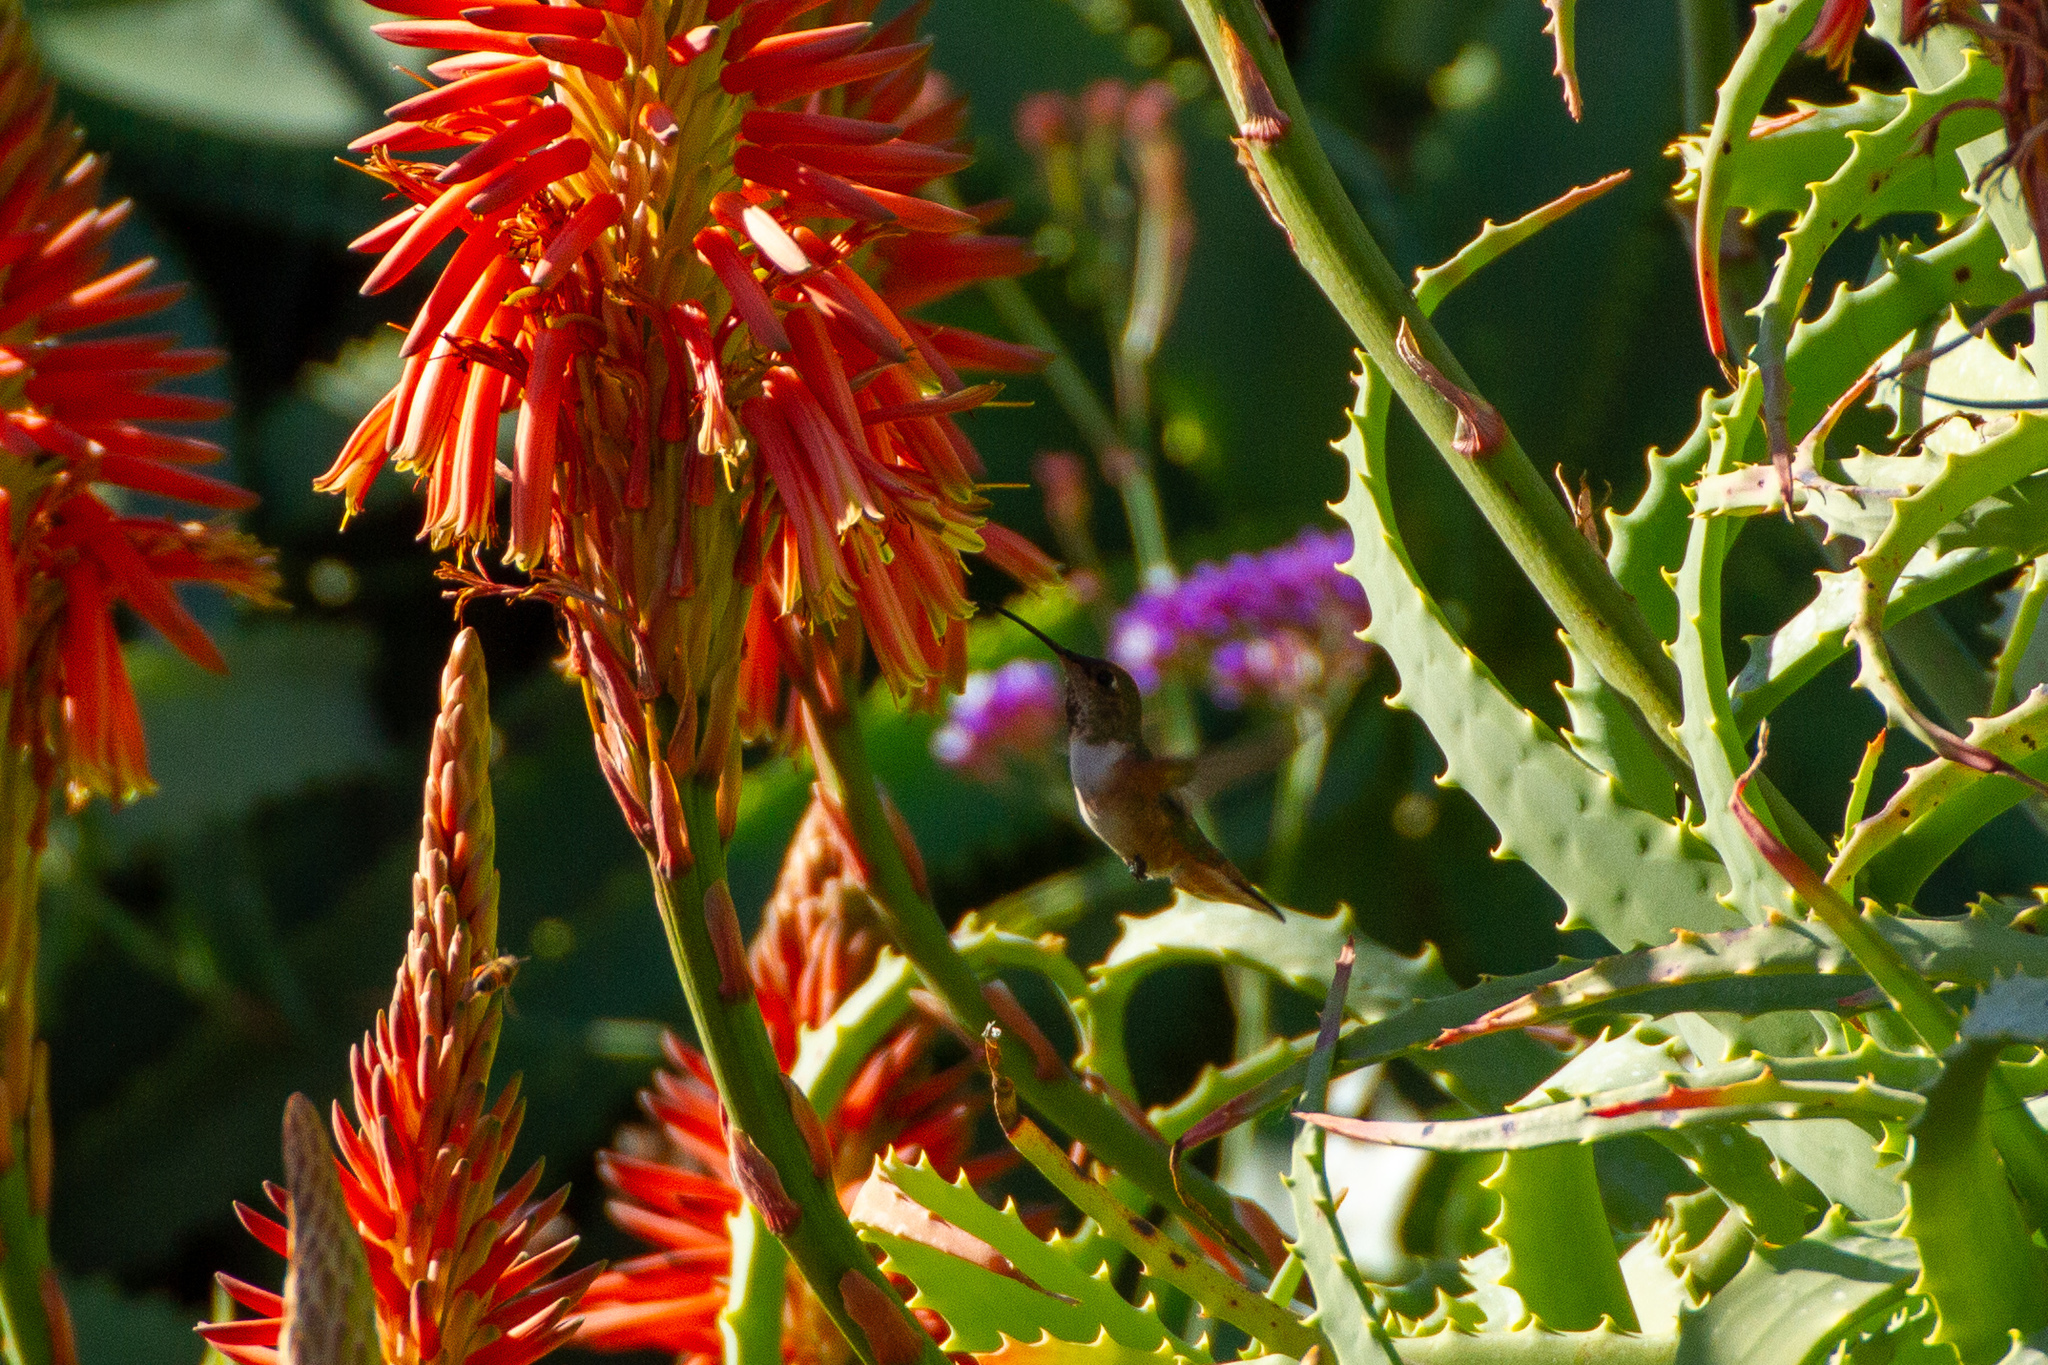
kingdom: Animalia
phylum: Chordata
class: Aves
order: Apodiformes
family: Trochilidae
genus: Selasphorus
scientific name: Selasphorus sasin
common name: Allen's hummingbird
